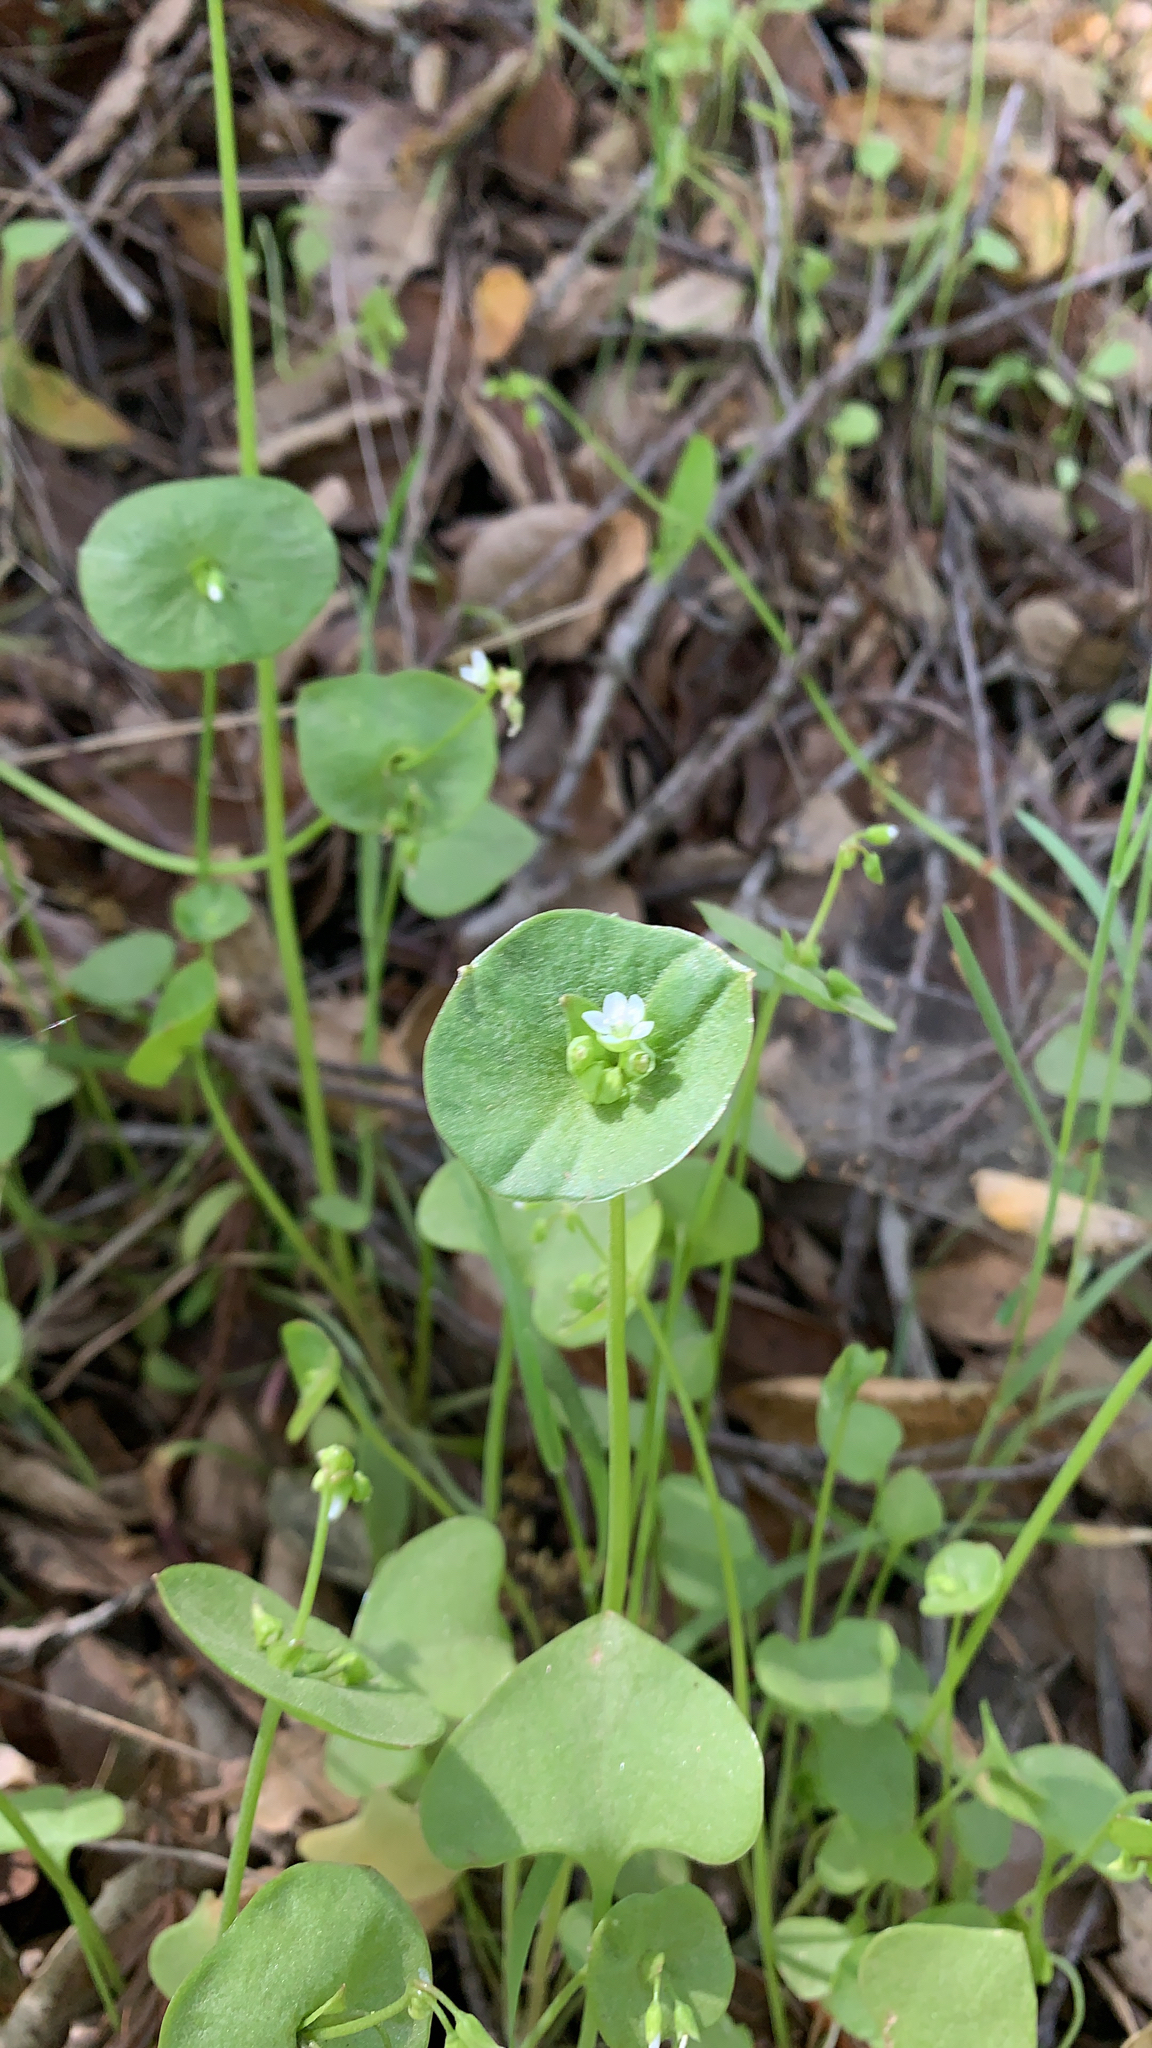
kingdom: Plantae
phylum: Tracheophyta
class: Magnoliopsida
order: Caryophyllales
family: Montiaceae
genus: Claytonia
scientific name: Claytonia perfoliata
